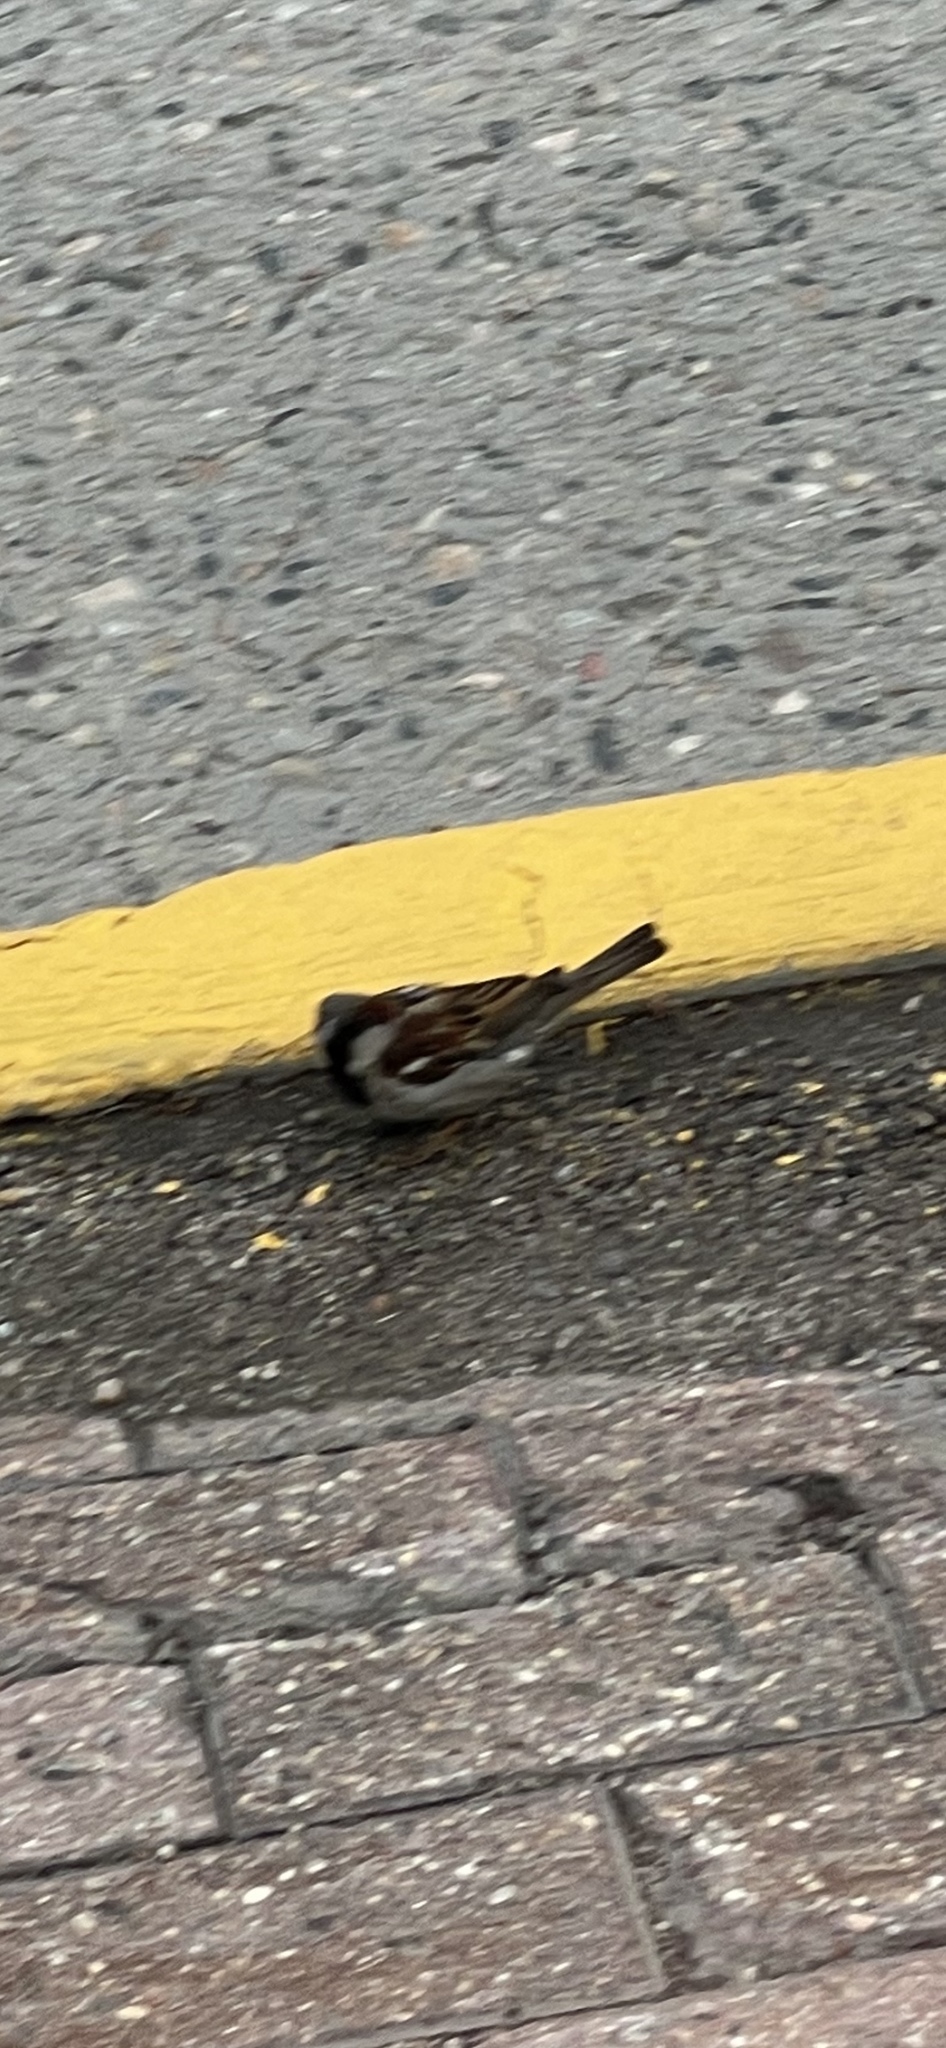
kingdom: Animalia
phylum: Chordata
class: Aves
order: Passeriformes
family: Passeridae
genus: Passer
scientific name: Passer domesticus
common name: House sparrow
